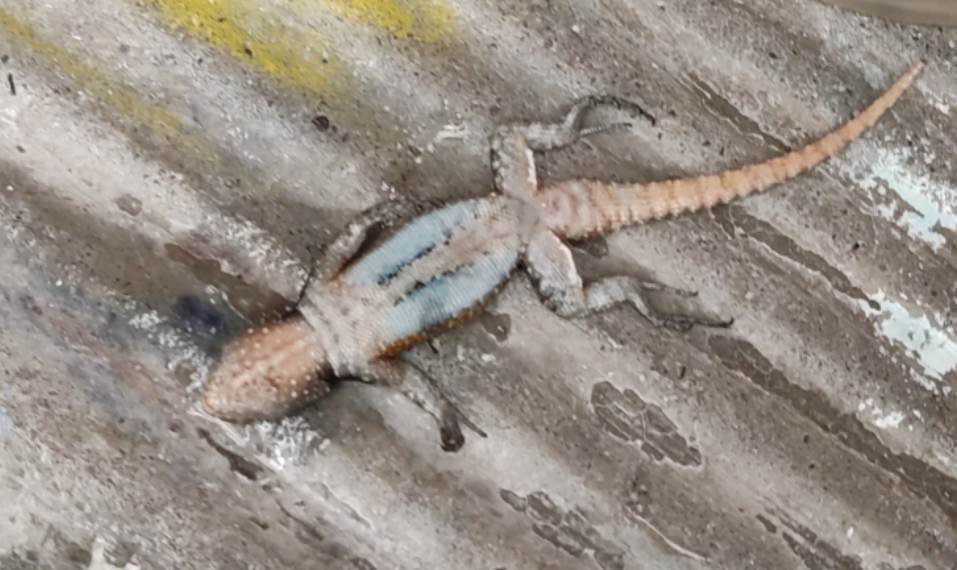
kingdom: Animalia
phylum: Chordata
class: Squamata
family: Phrynosomatidae
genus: Sceloporus
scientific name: Sceloporus grammicus
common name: Mesquite lizard
